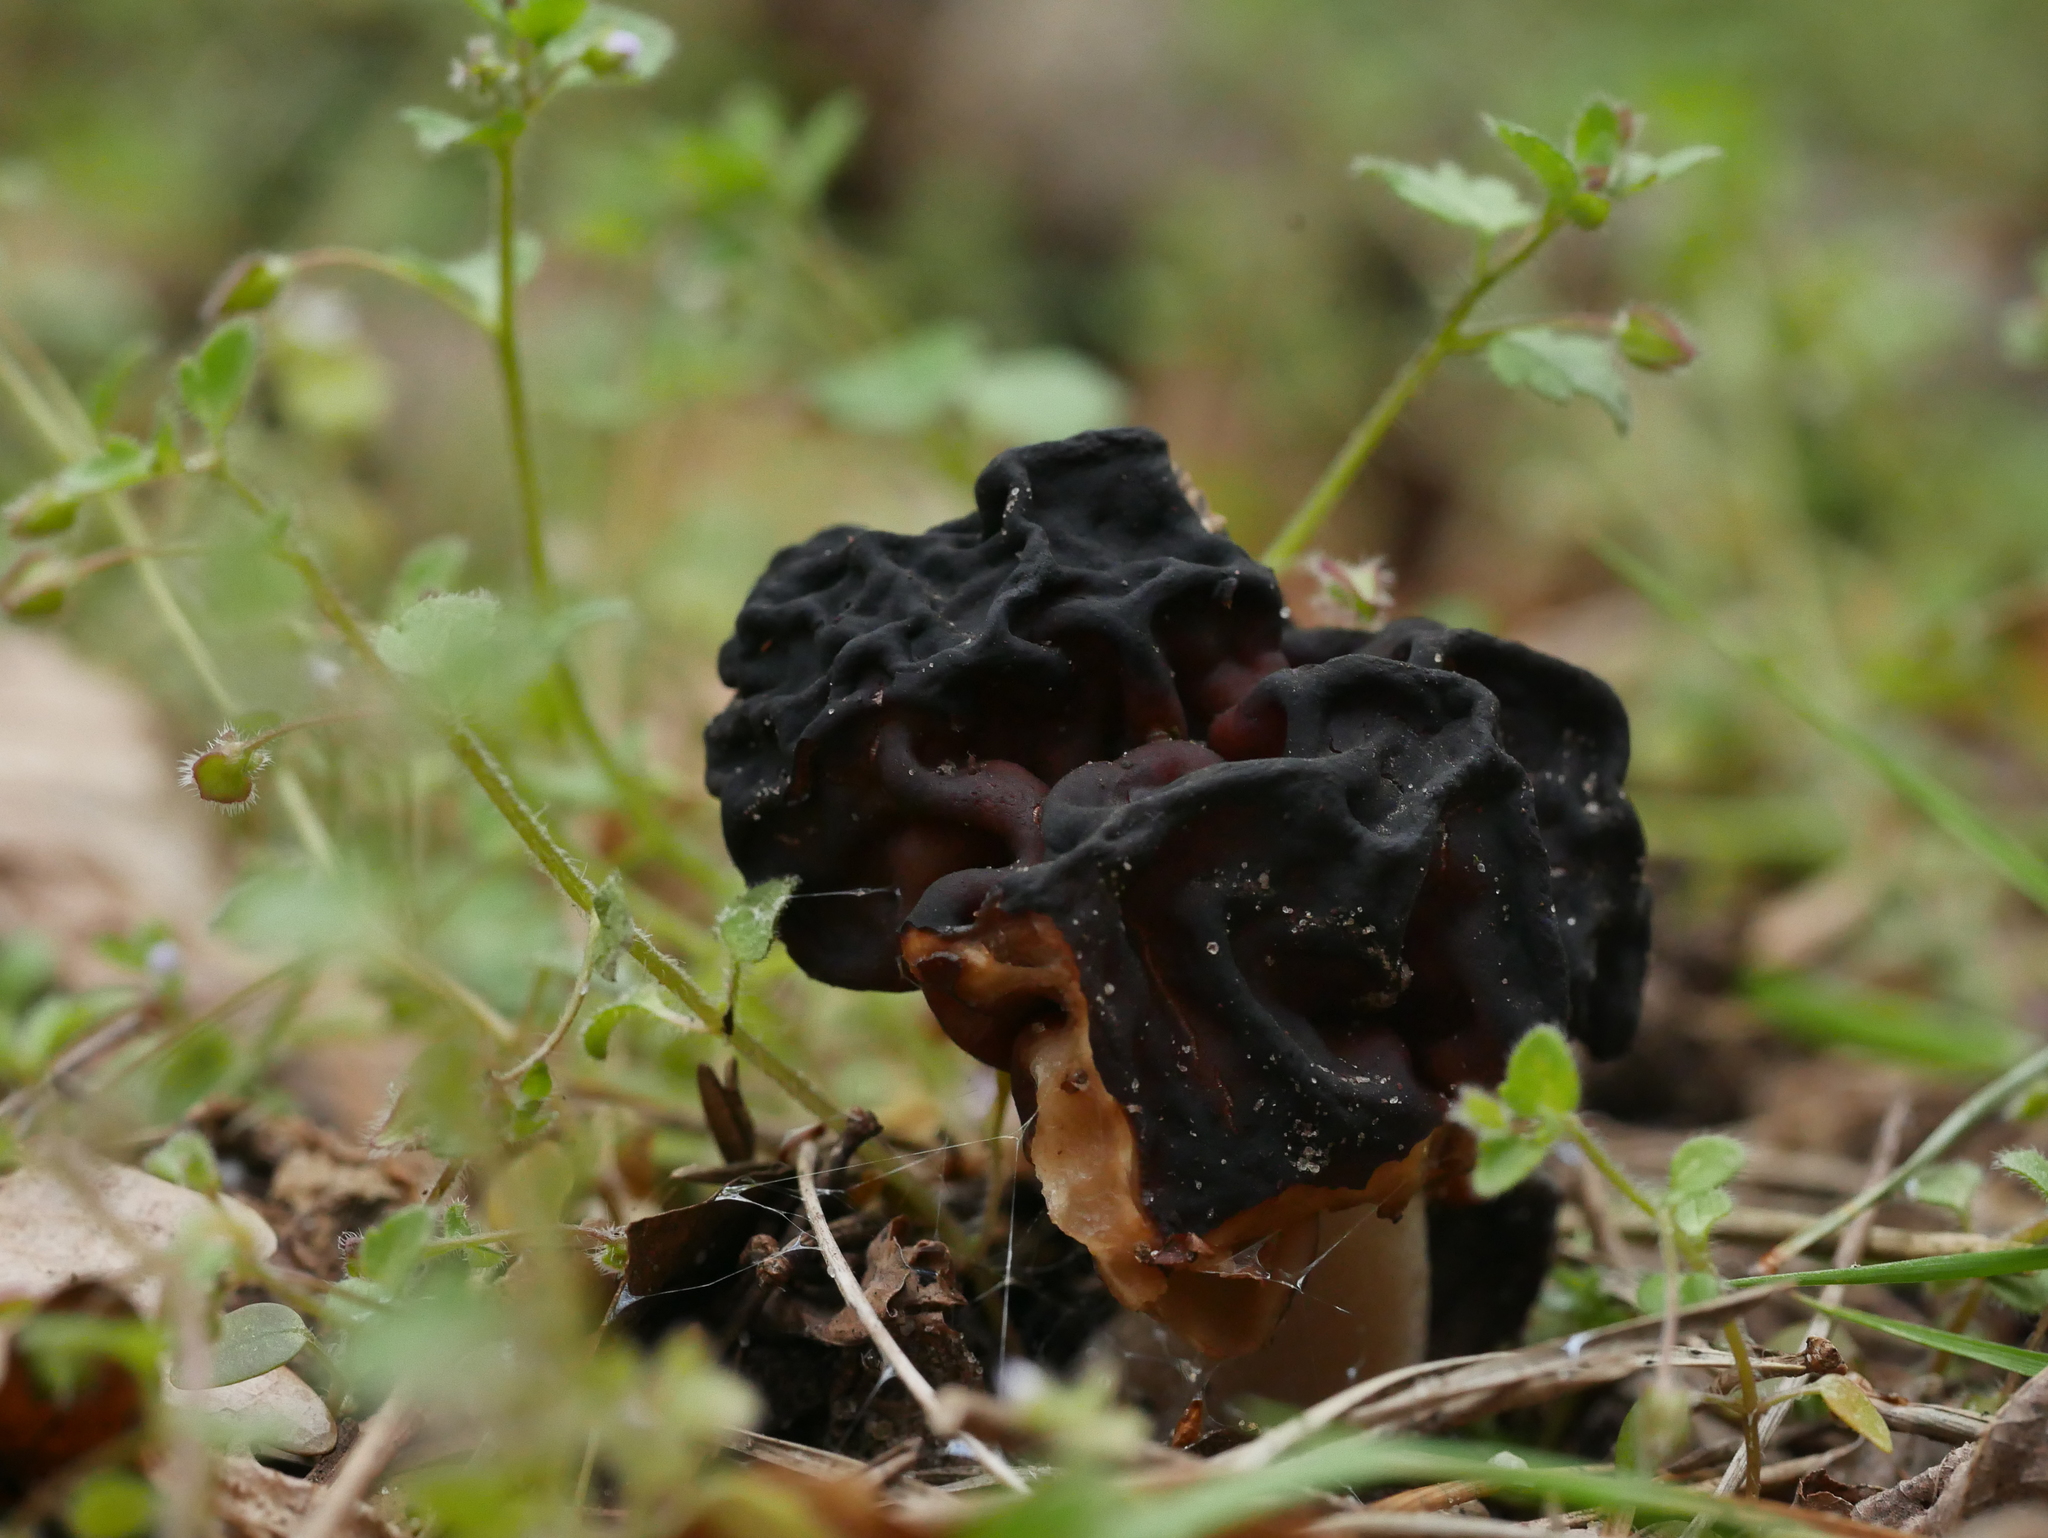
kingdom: Fungi
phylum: Ascomycota
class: Pezizomycetes
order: Pezizales
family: Discinaceae
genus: Gyromitra
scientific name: Gyromitra esculenta
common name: False morel
